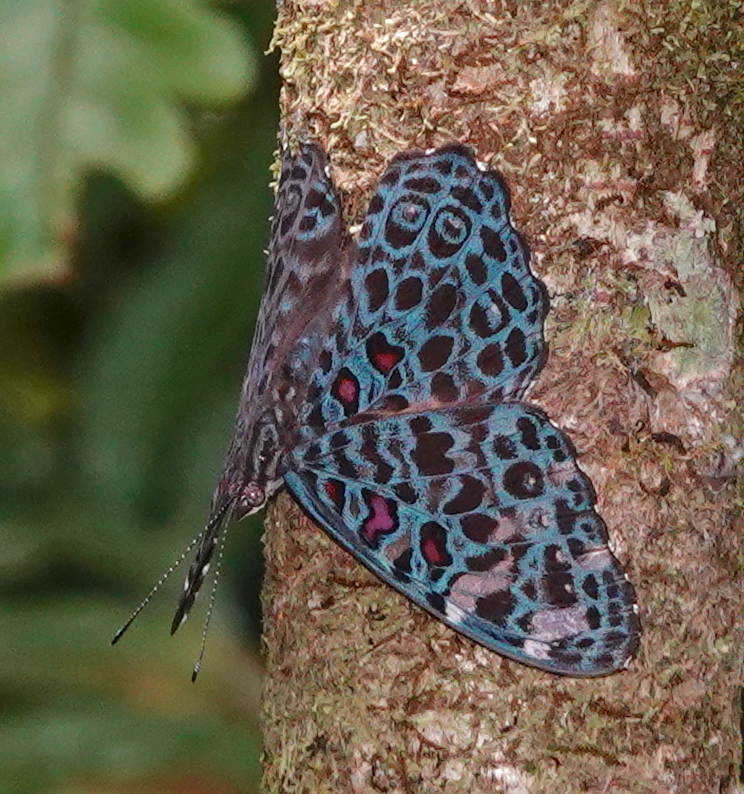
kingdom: Animalia
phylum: Arthropoda
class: Insecta
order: Lepidoptera
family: Nymphalidae
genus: Hamadryas
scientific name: Hamadryas chloe
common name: Amazon cracker
